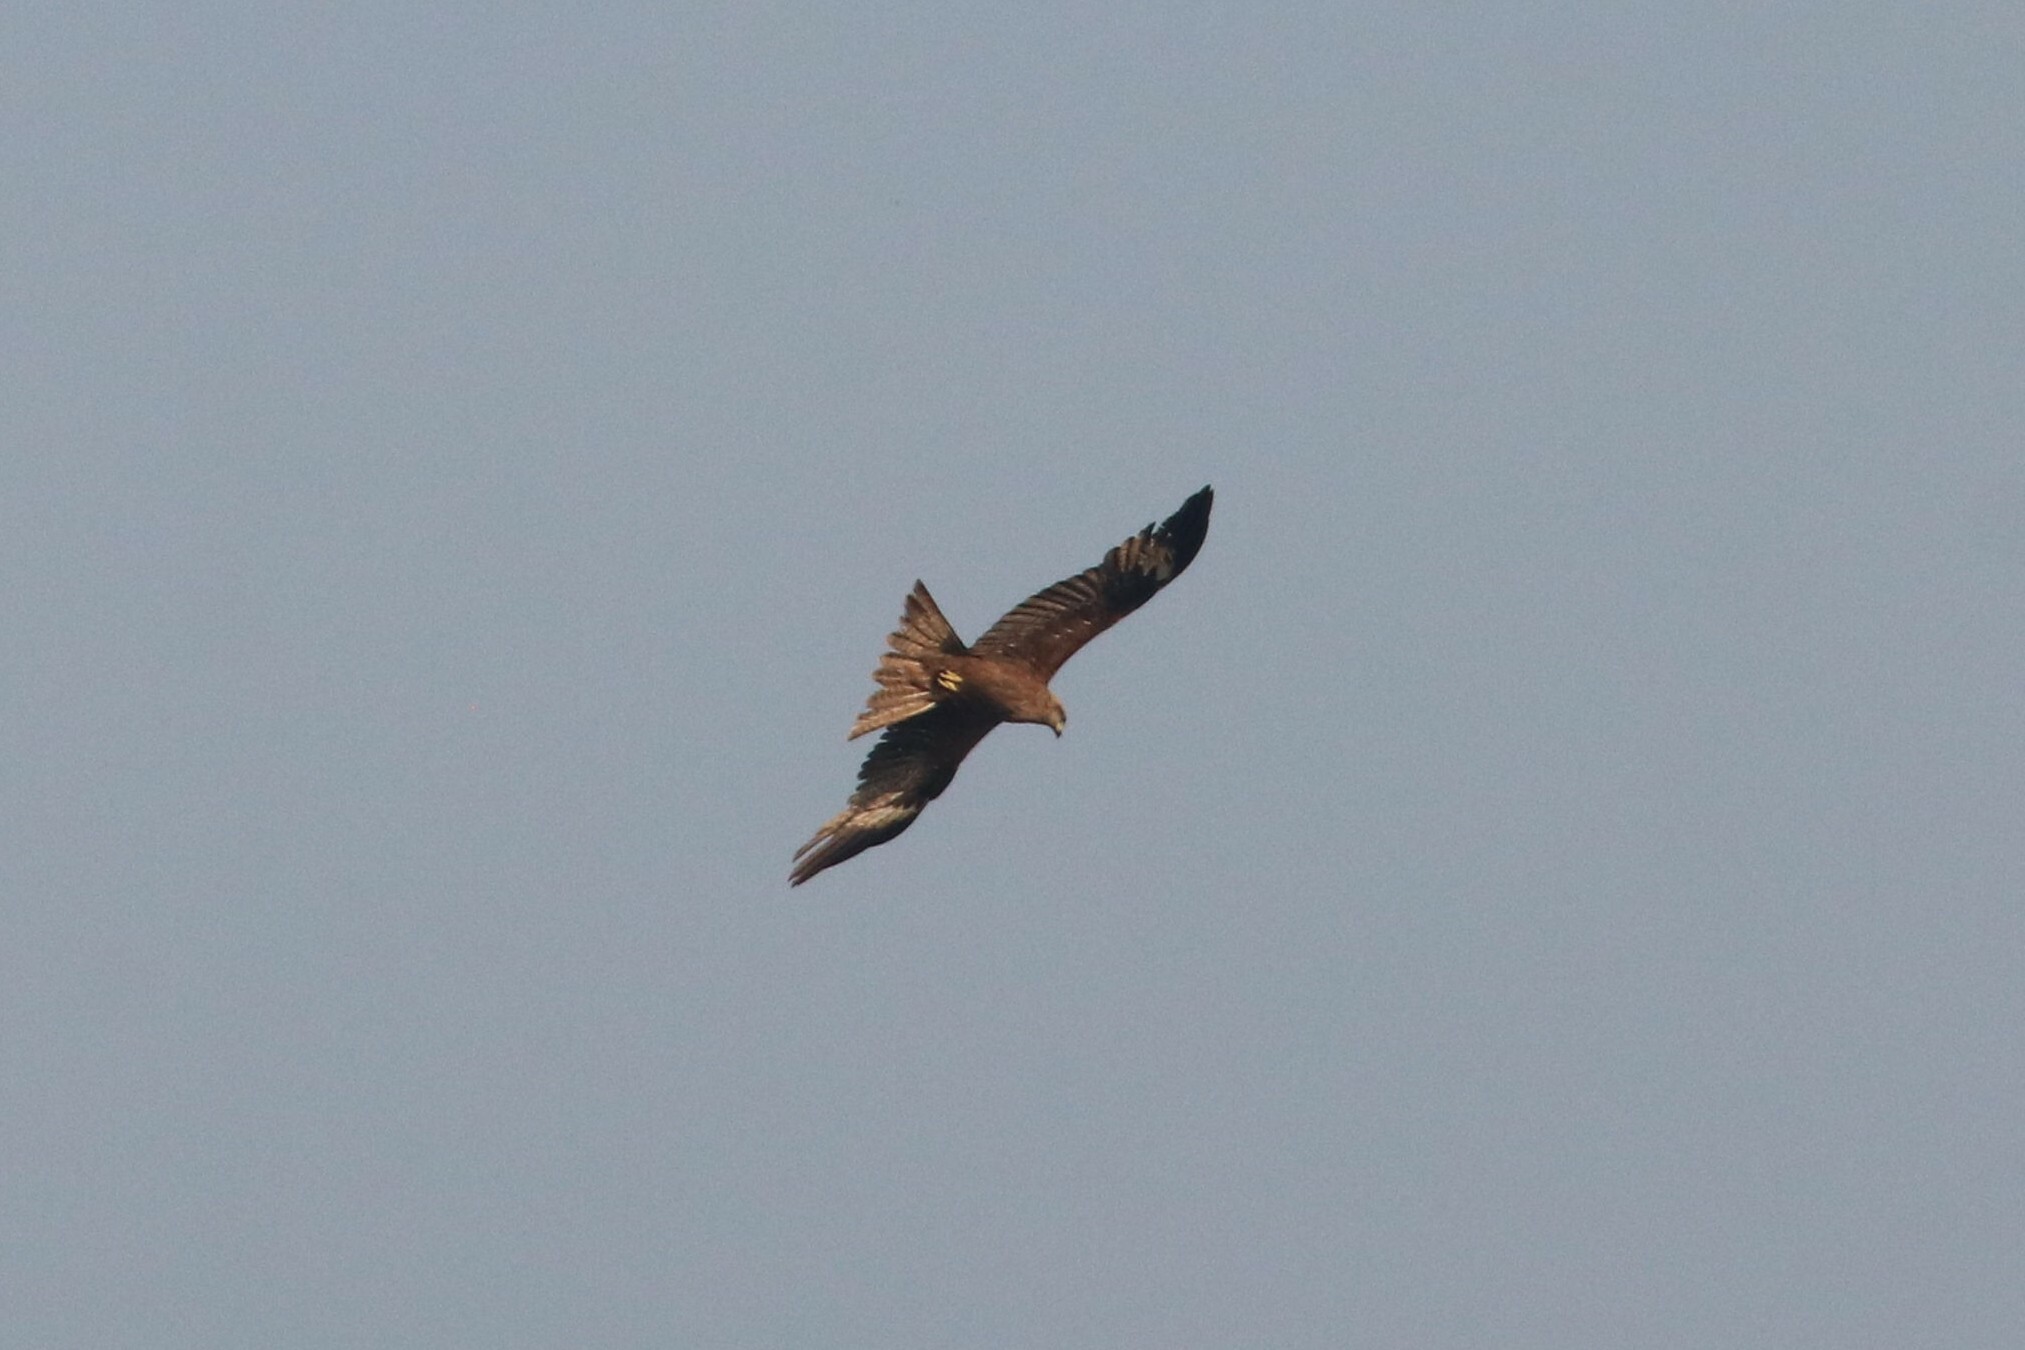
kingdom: Animalia
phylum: Chordata
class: Aves
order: Accipitriformes
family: Accipitridae
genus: Milvus
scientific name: Milvus migrans
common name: Black kite
